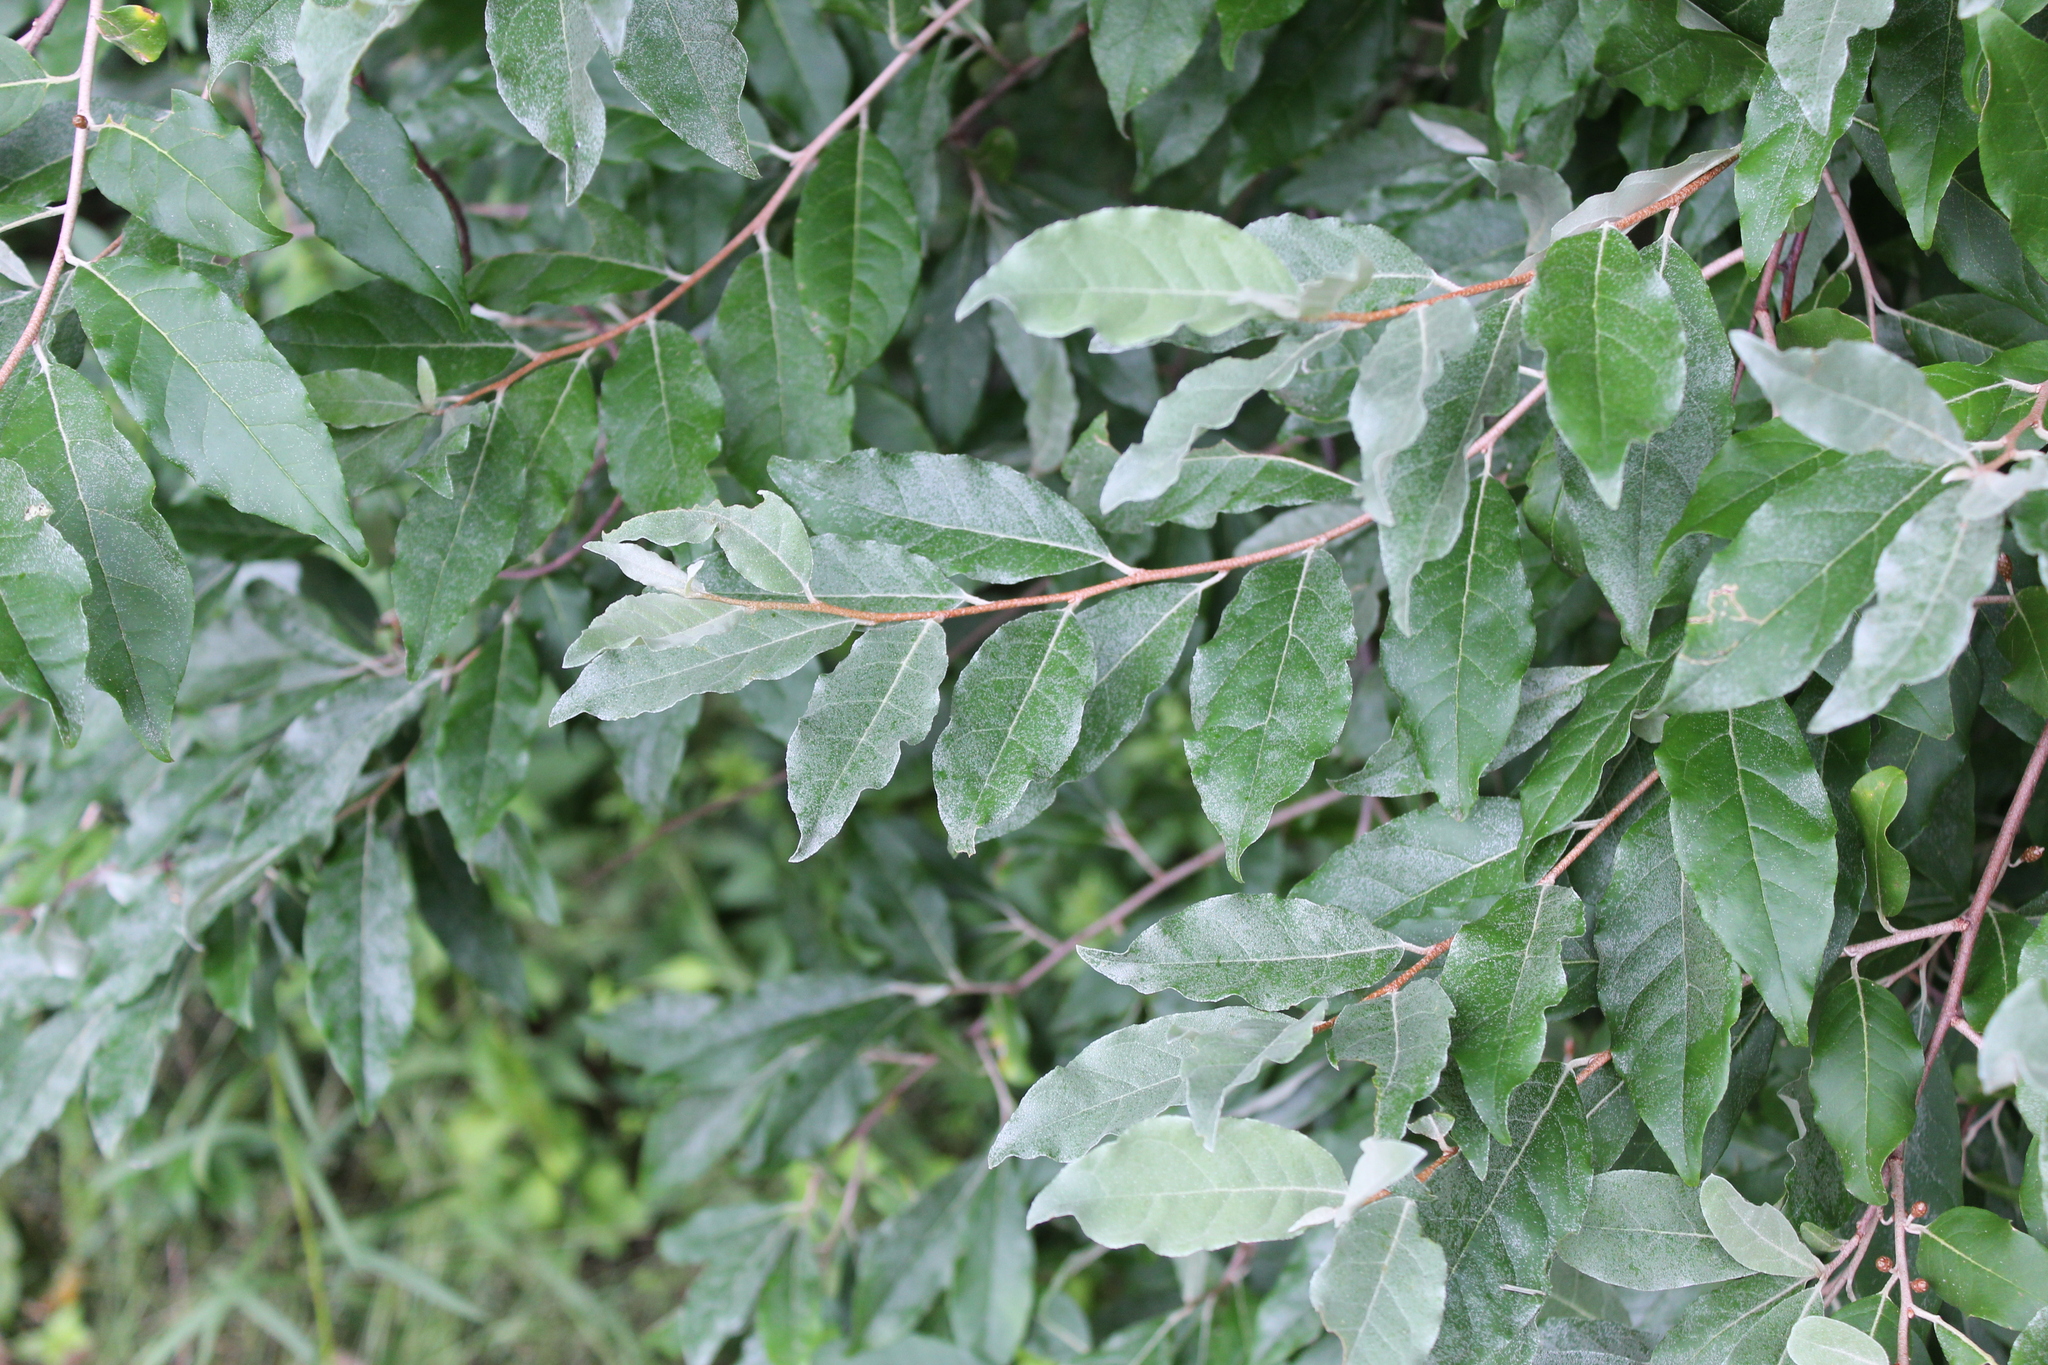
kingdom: Plantae
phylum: Tracheophyta
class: Magnoliopsida
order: Rosales
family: Elaeagnaceae
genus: Elaeagnus
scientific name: Elaeagnus umbellata
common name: Autumn olive
